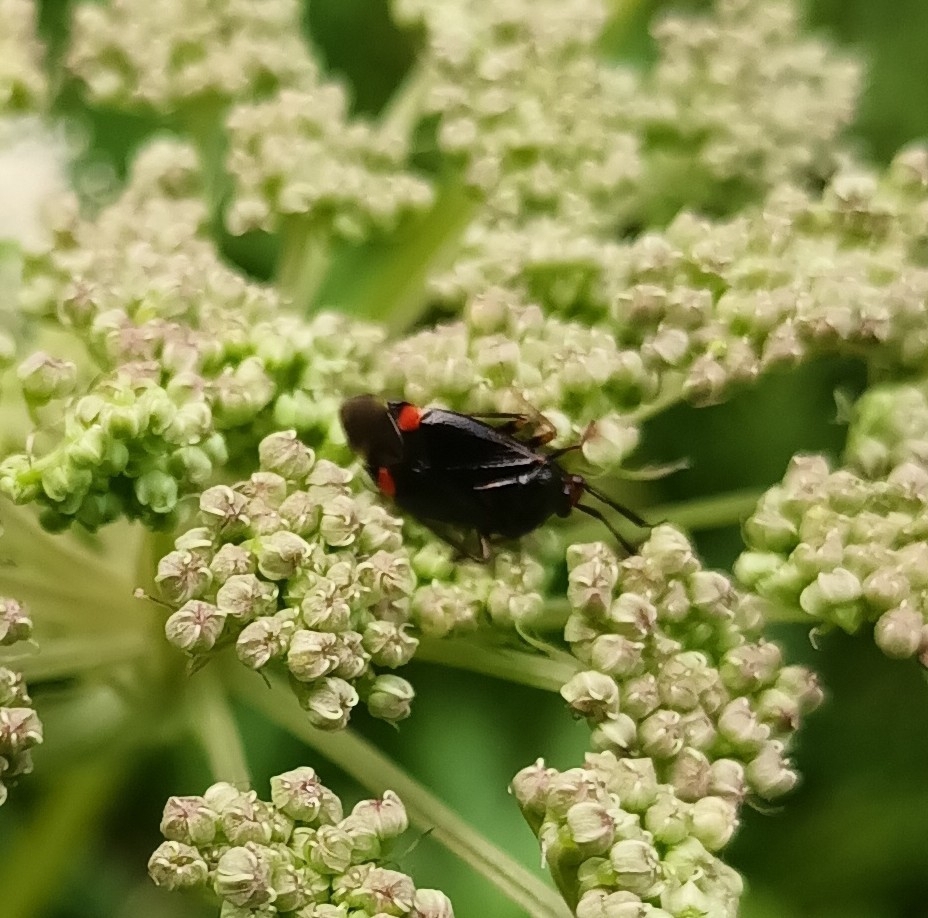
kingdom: Animalia
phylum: Arthropoda
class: Insecta
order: Hemiptera
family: Miridae
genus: Deraeocoris
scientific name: Deraeocoris ruber
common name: Plant bug
